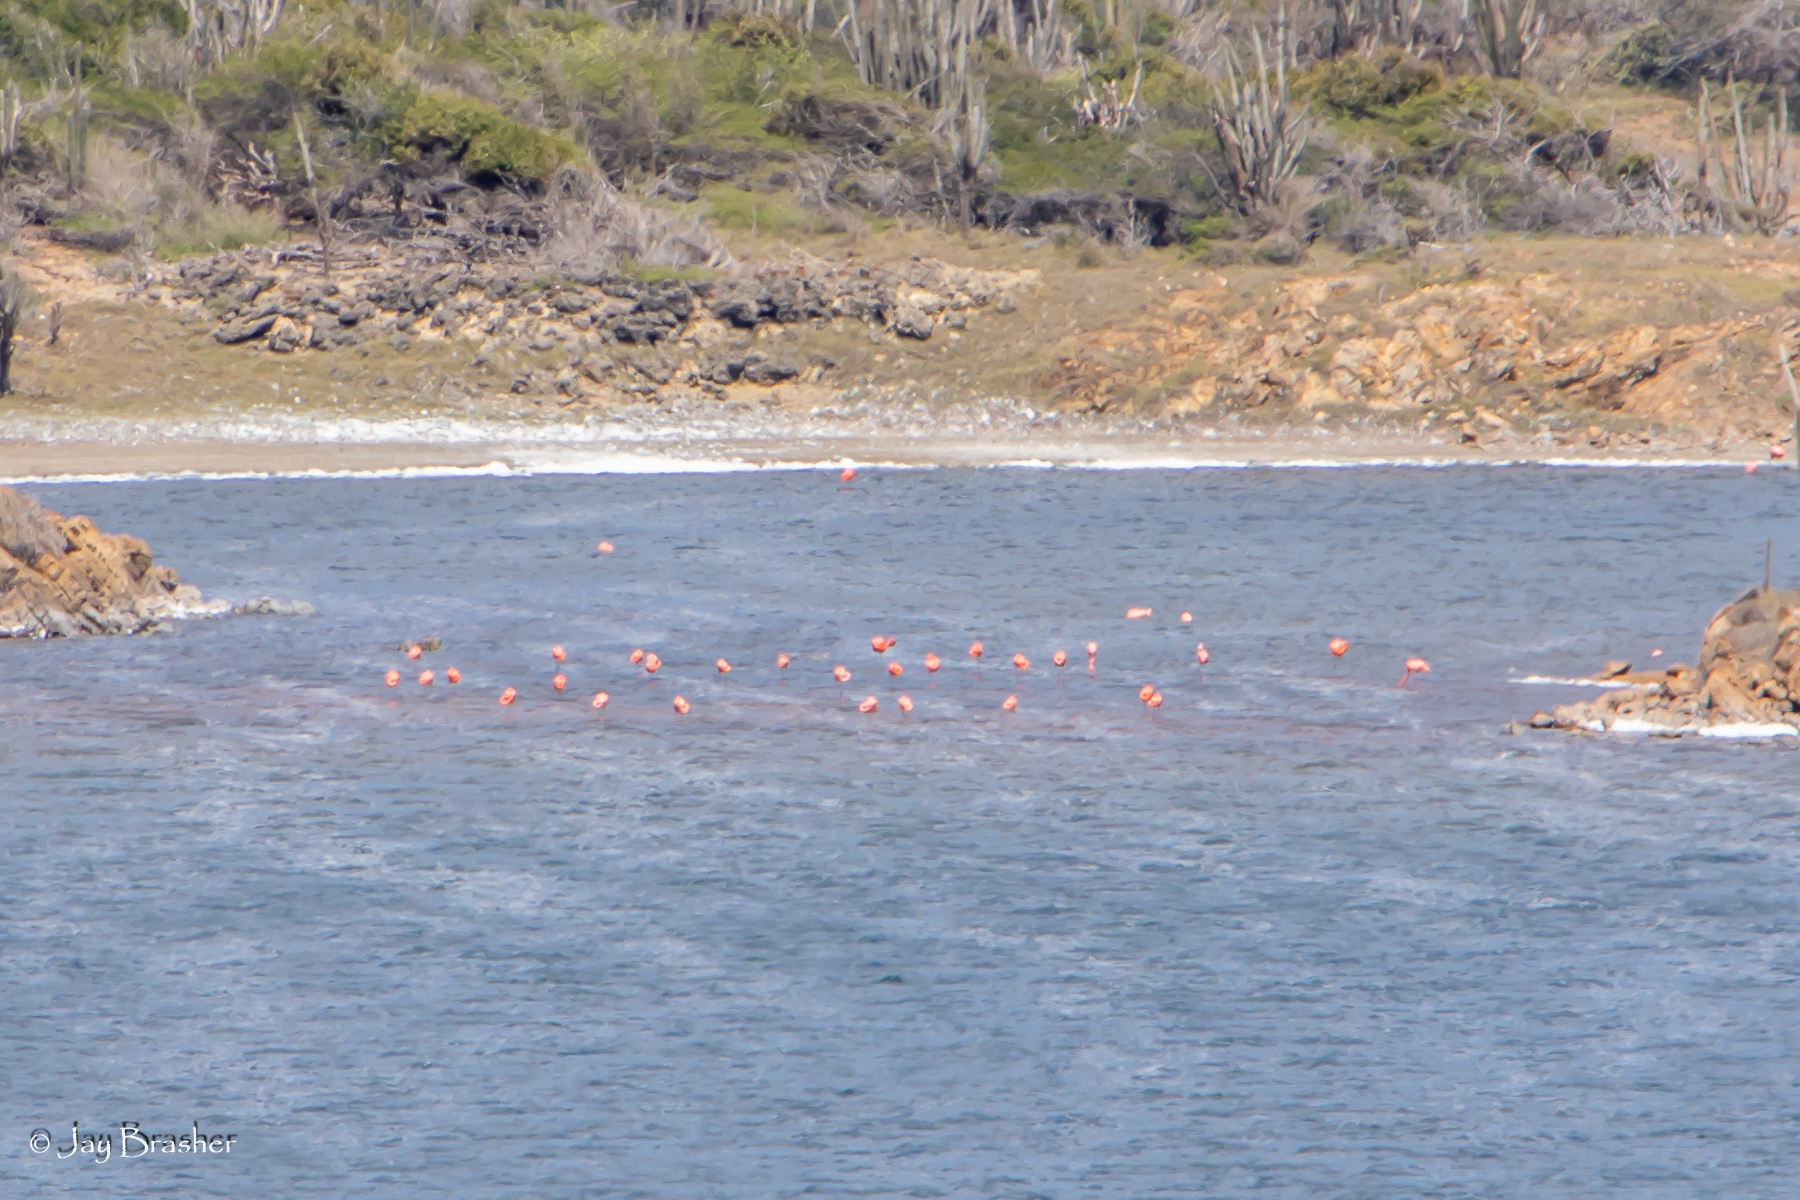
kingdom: Animalia
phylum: Chordata
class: Aves
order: Phoenicopteriformes
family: Phoenicopteridae
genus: Phoenicopterus
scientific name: Phoenicopterus ruber
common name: American flamingo
